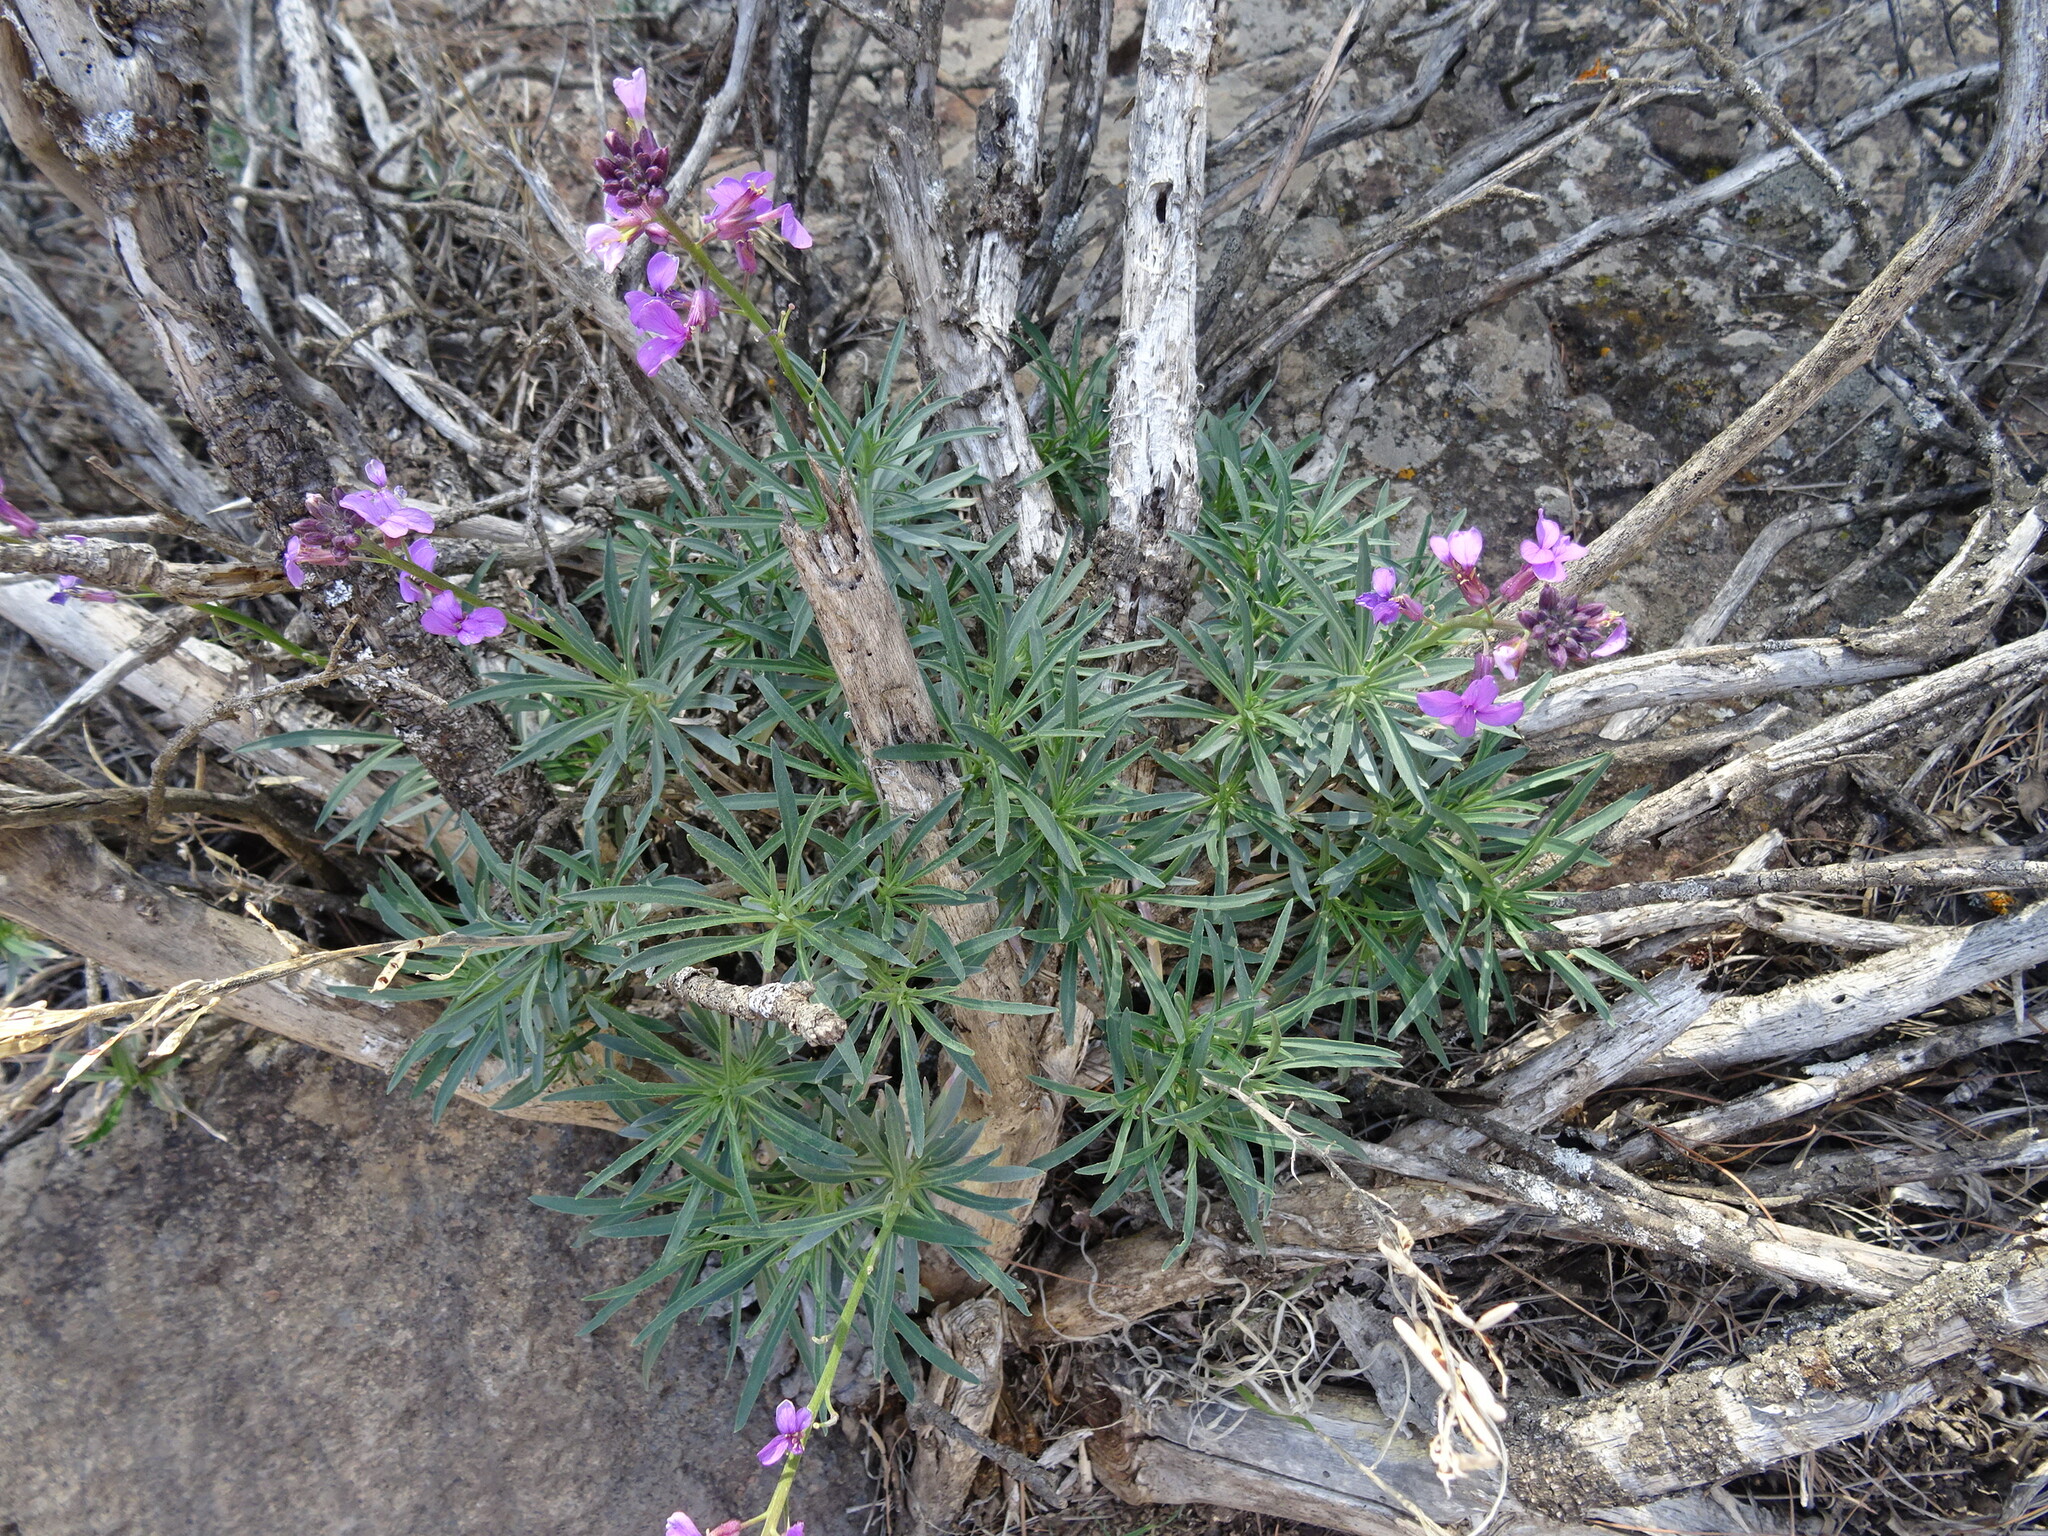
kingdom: Plantae
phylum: Tracheophyta
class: Magnoliopsida
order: Brassicales
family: Brassicaceae
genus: Erysimum
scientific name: Erysimum bicolor
